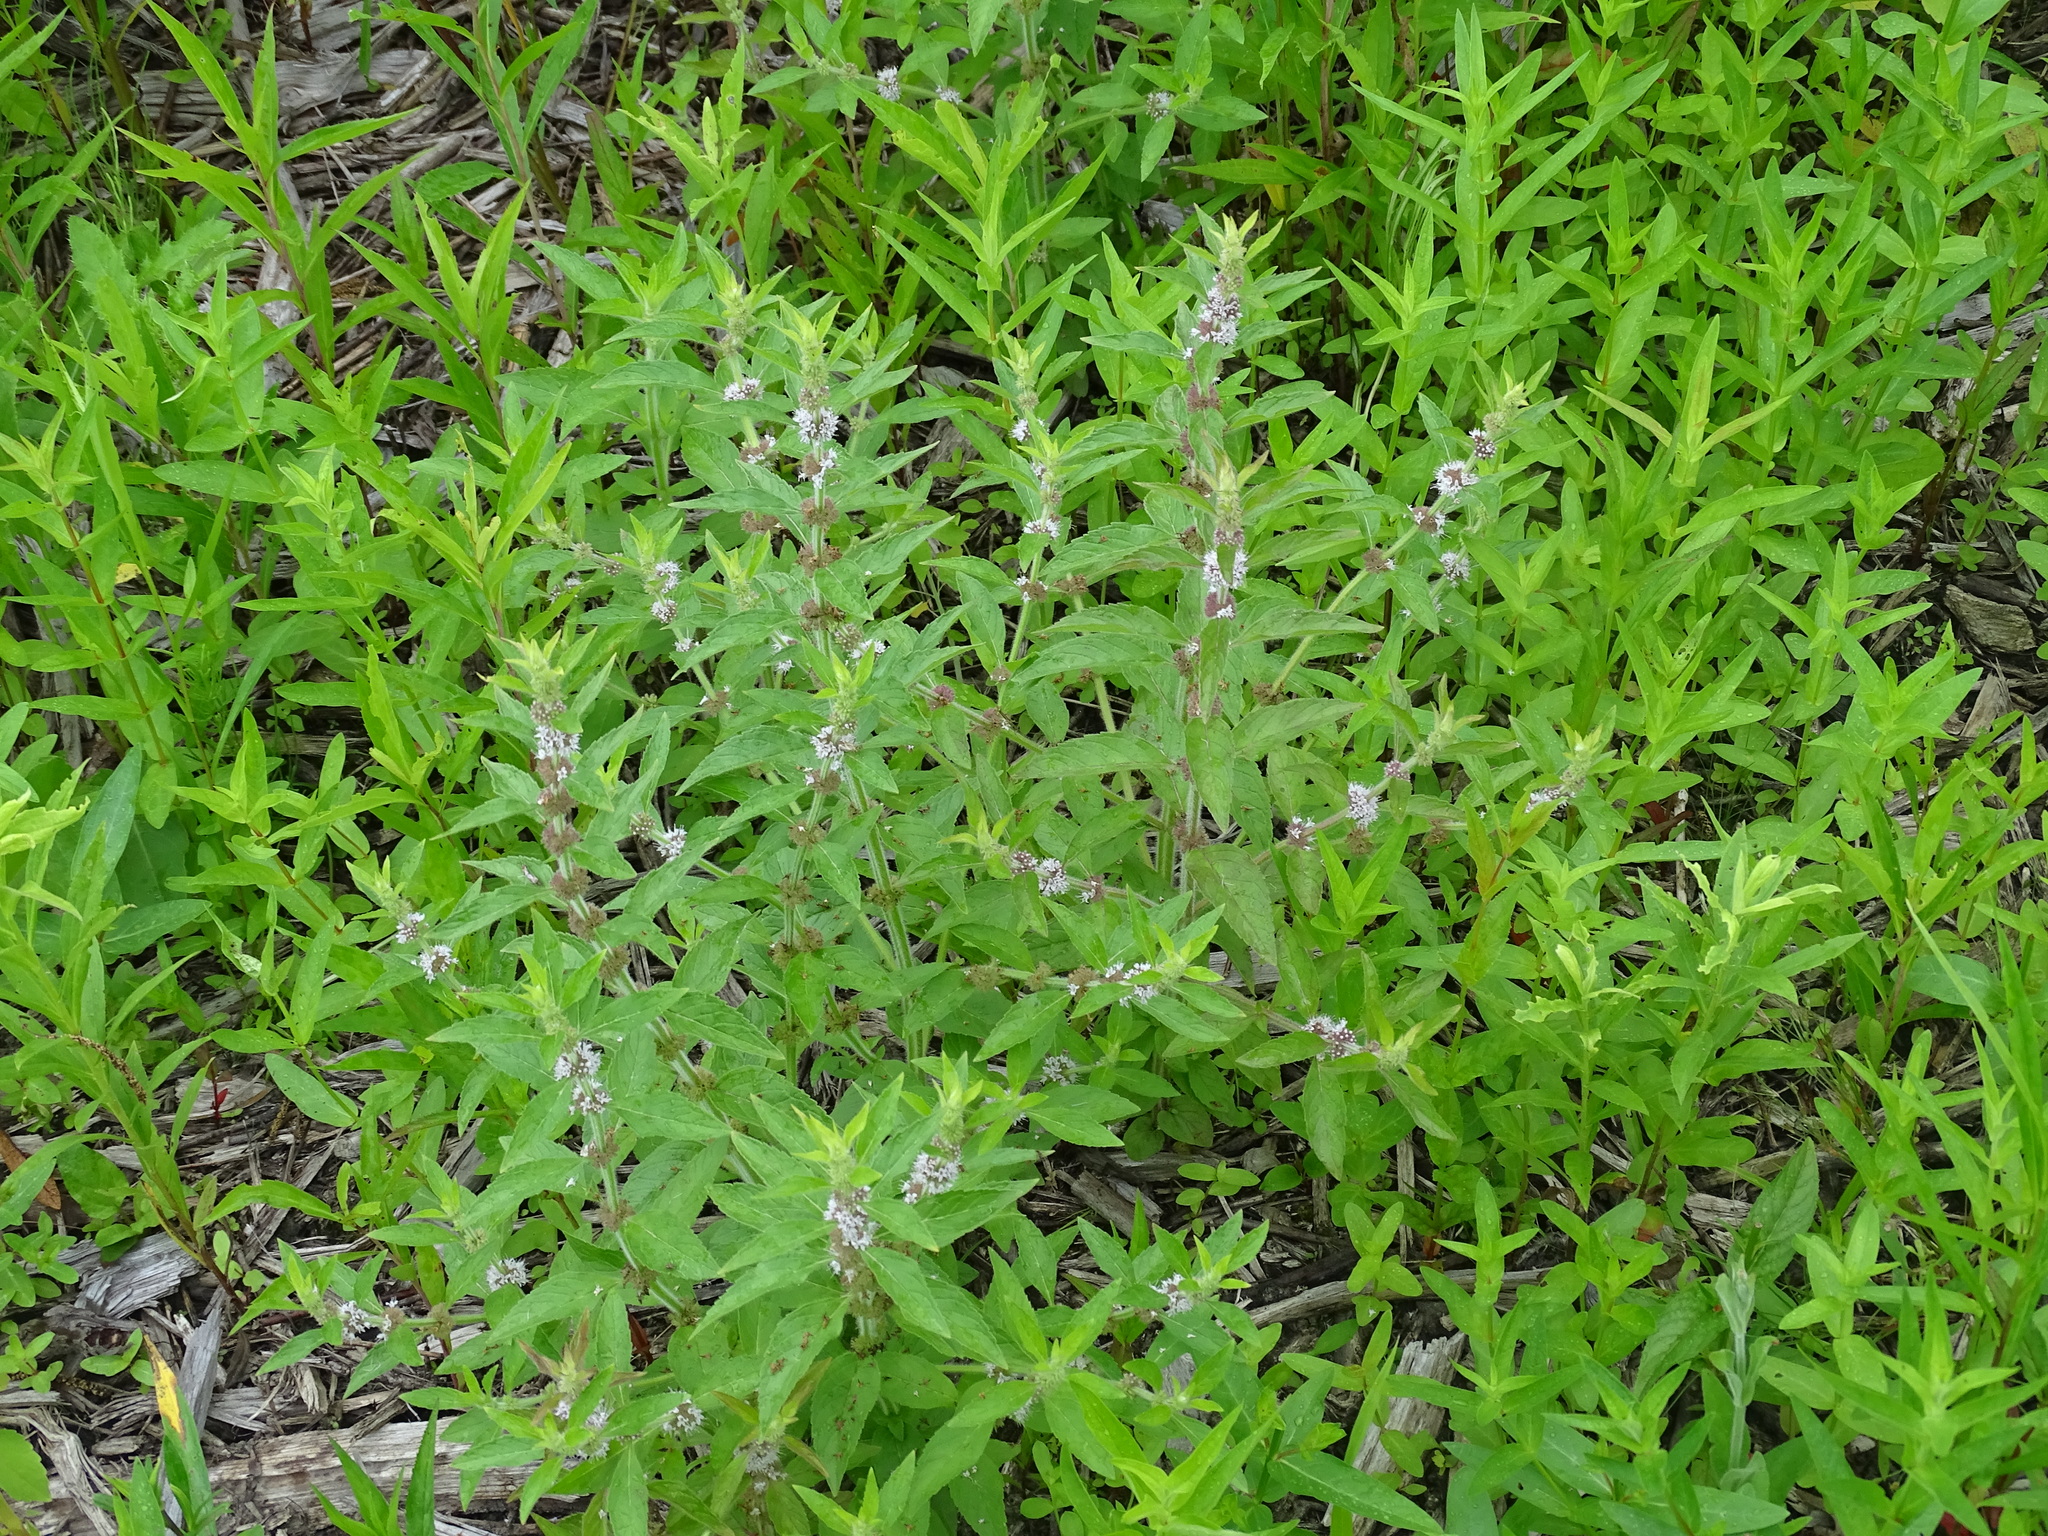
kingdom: Plantae
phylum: Tracheophyta
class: Magnoliopsida
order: Lamiales
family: Lamiaceae
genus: Mentha
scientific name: Mentha canadensis
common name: American corn mint
